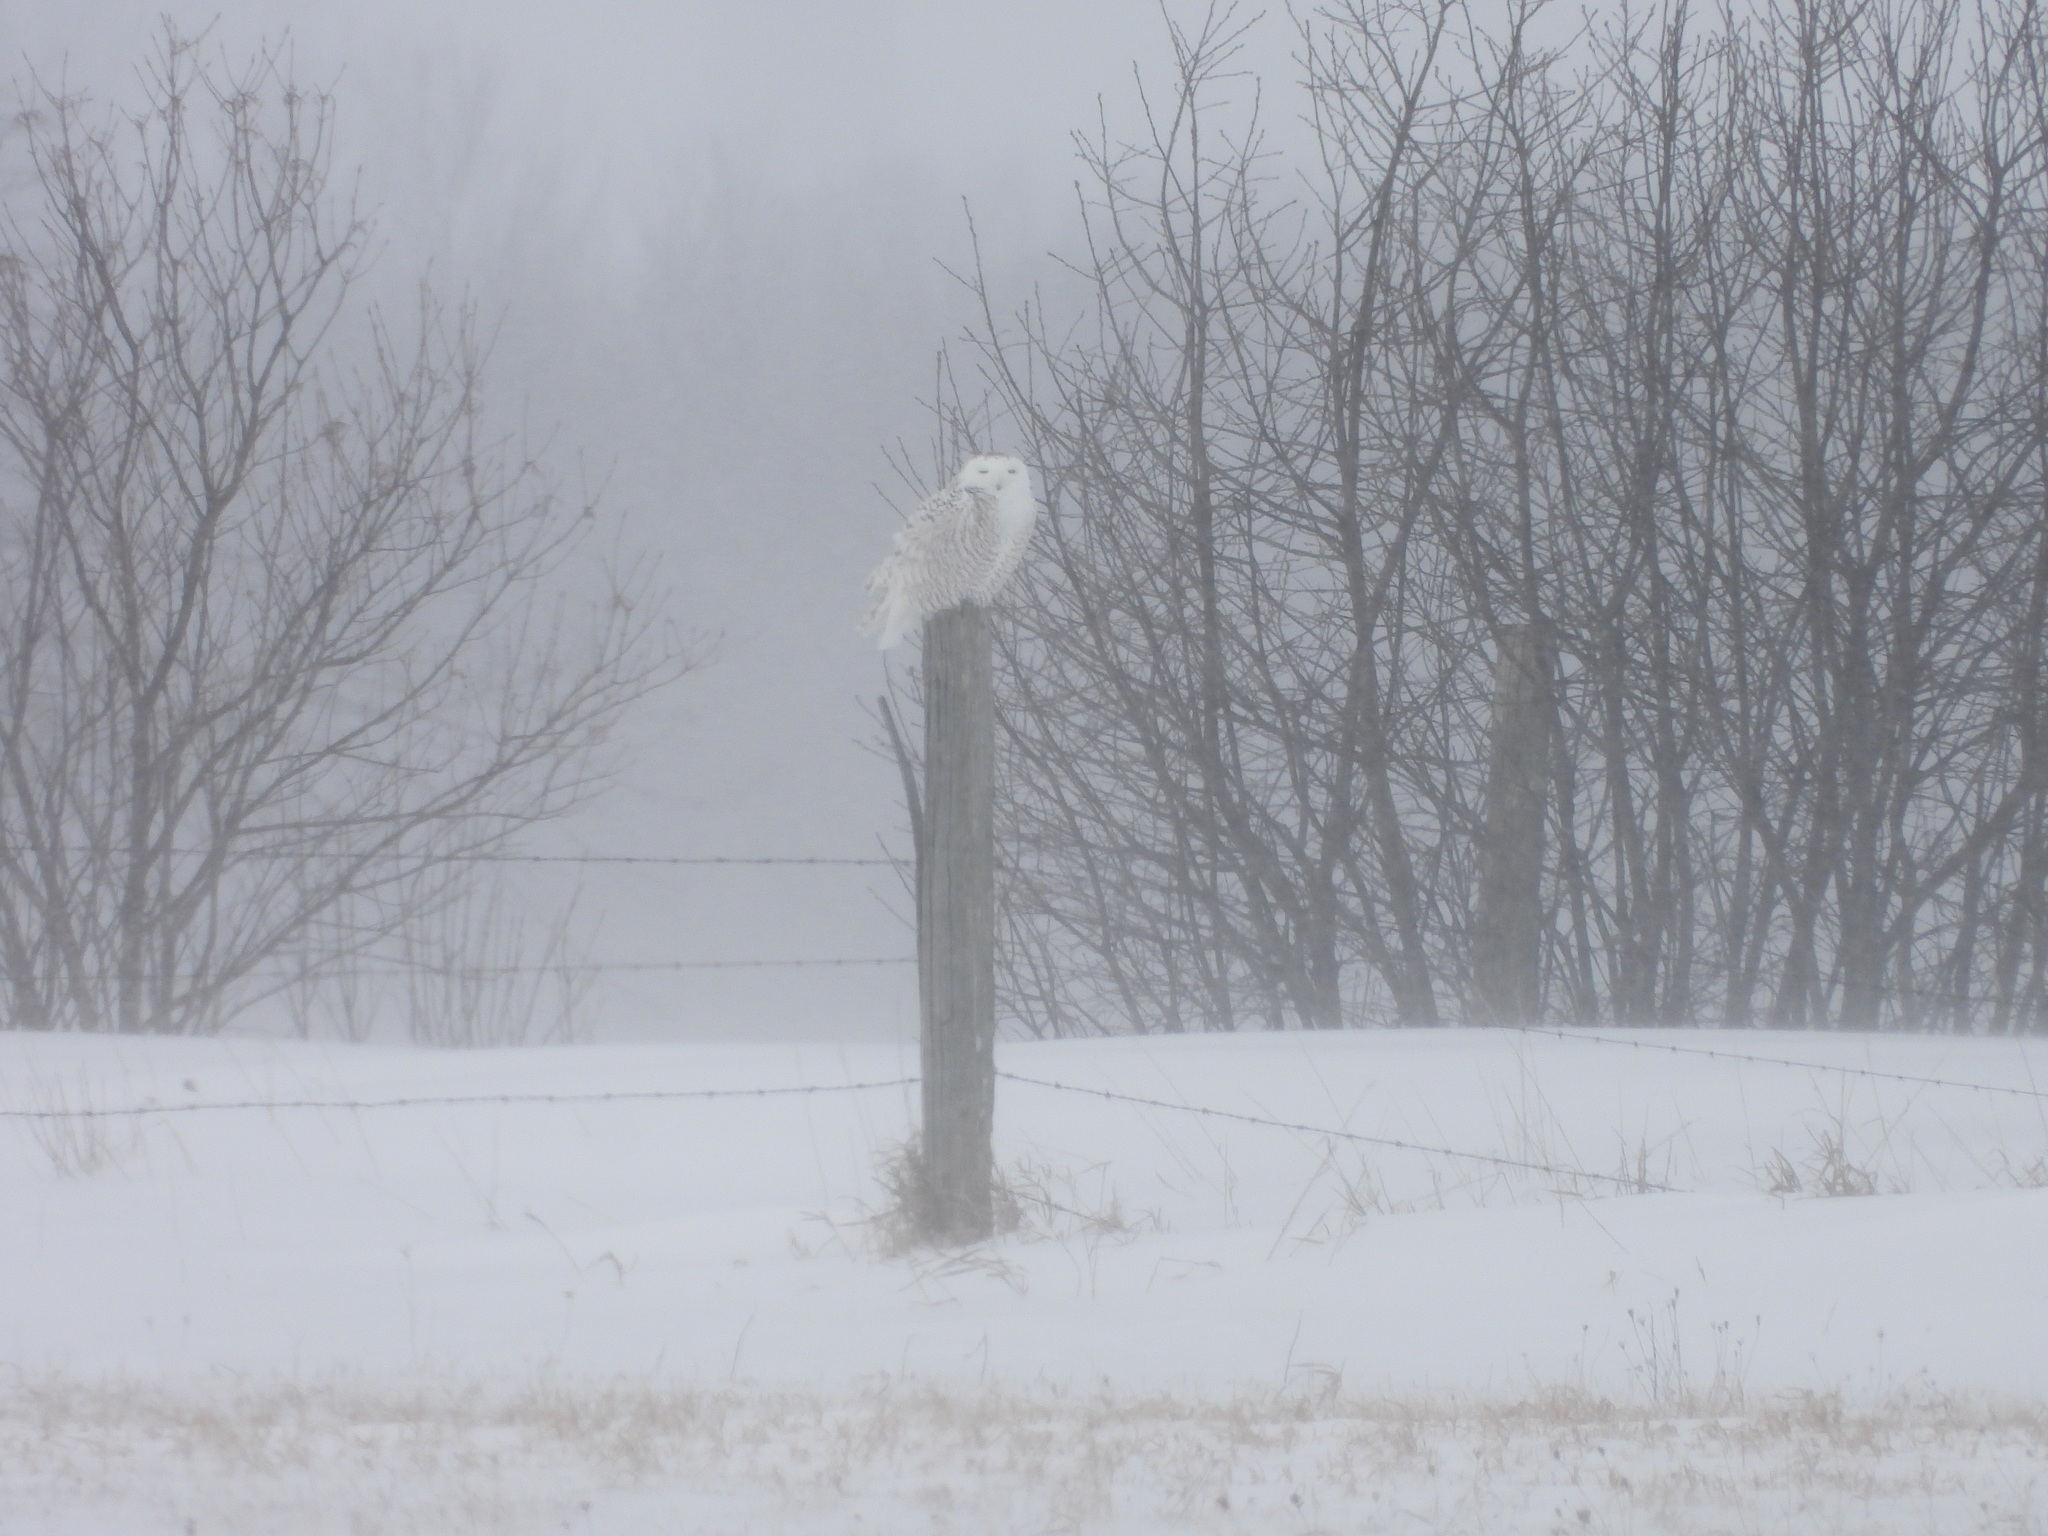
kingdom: Animalia
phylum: Chordata
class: Aves
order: Strigiformes
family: Strigidae
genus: Bubo
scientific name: Bubo scandiacus
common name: Snowy owl
